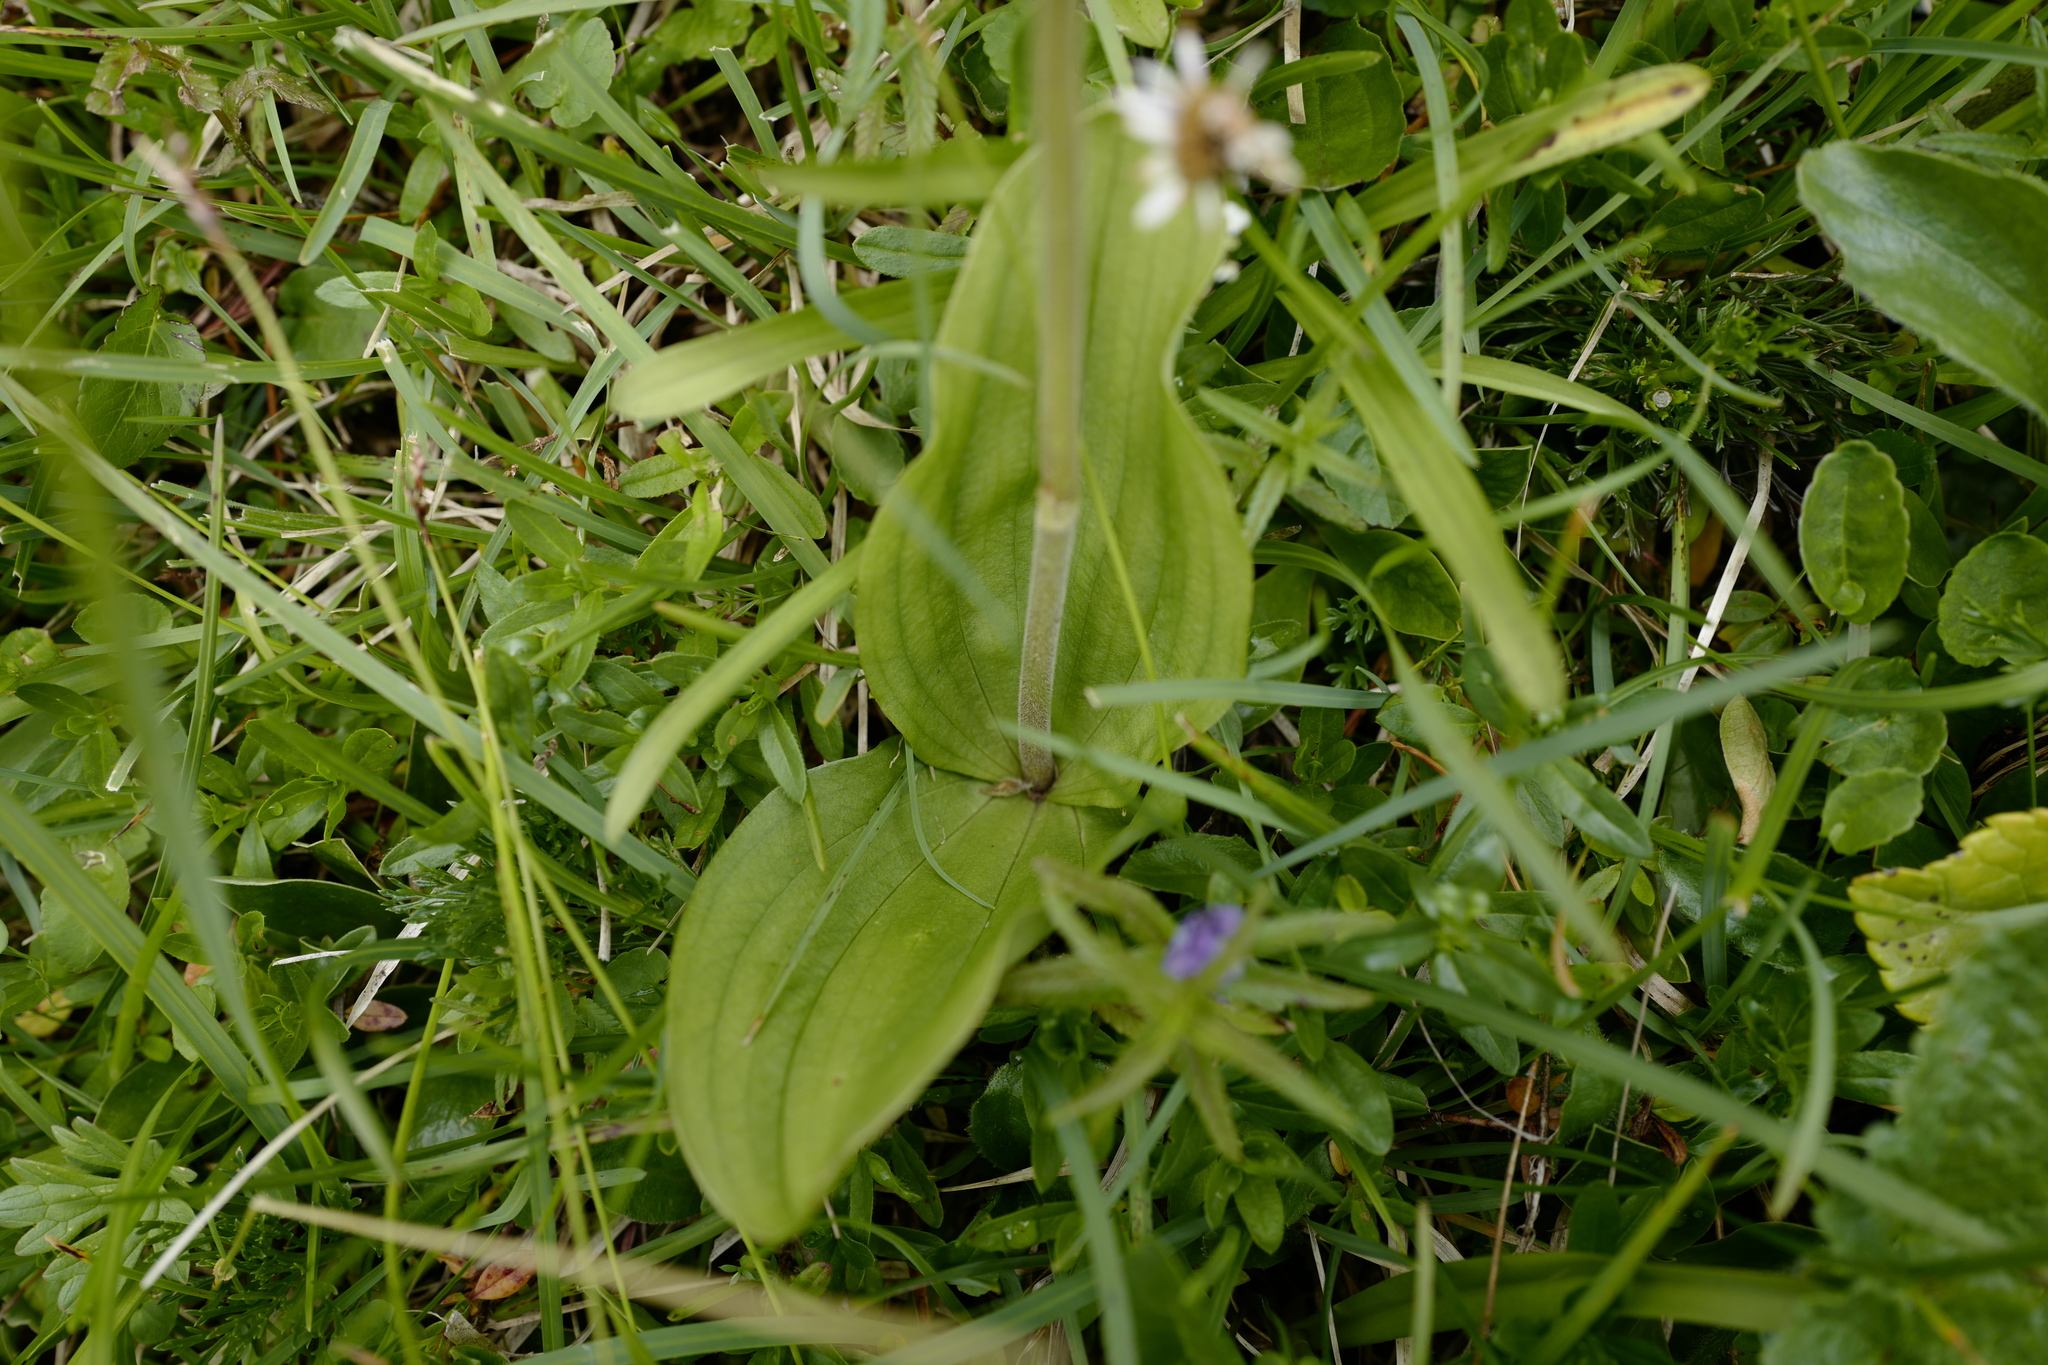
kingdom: Plantae
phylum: Tracheophyta
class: Liliopsida
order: Asparagales
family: Orchidaceae
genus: Neottia
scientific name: Neottia ovata
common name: Common twayblade
